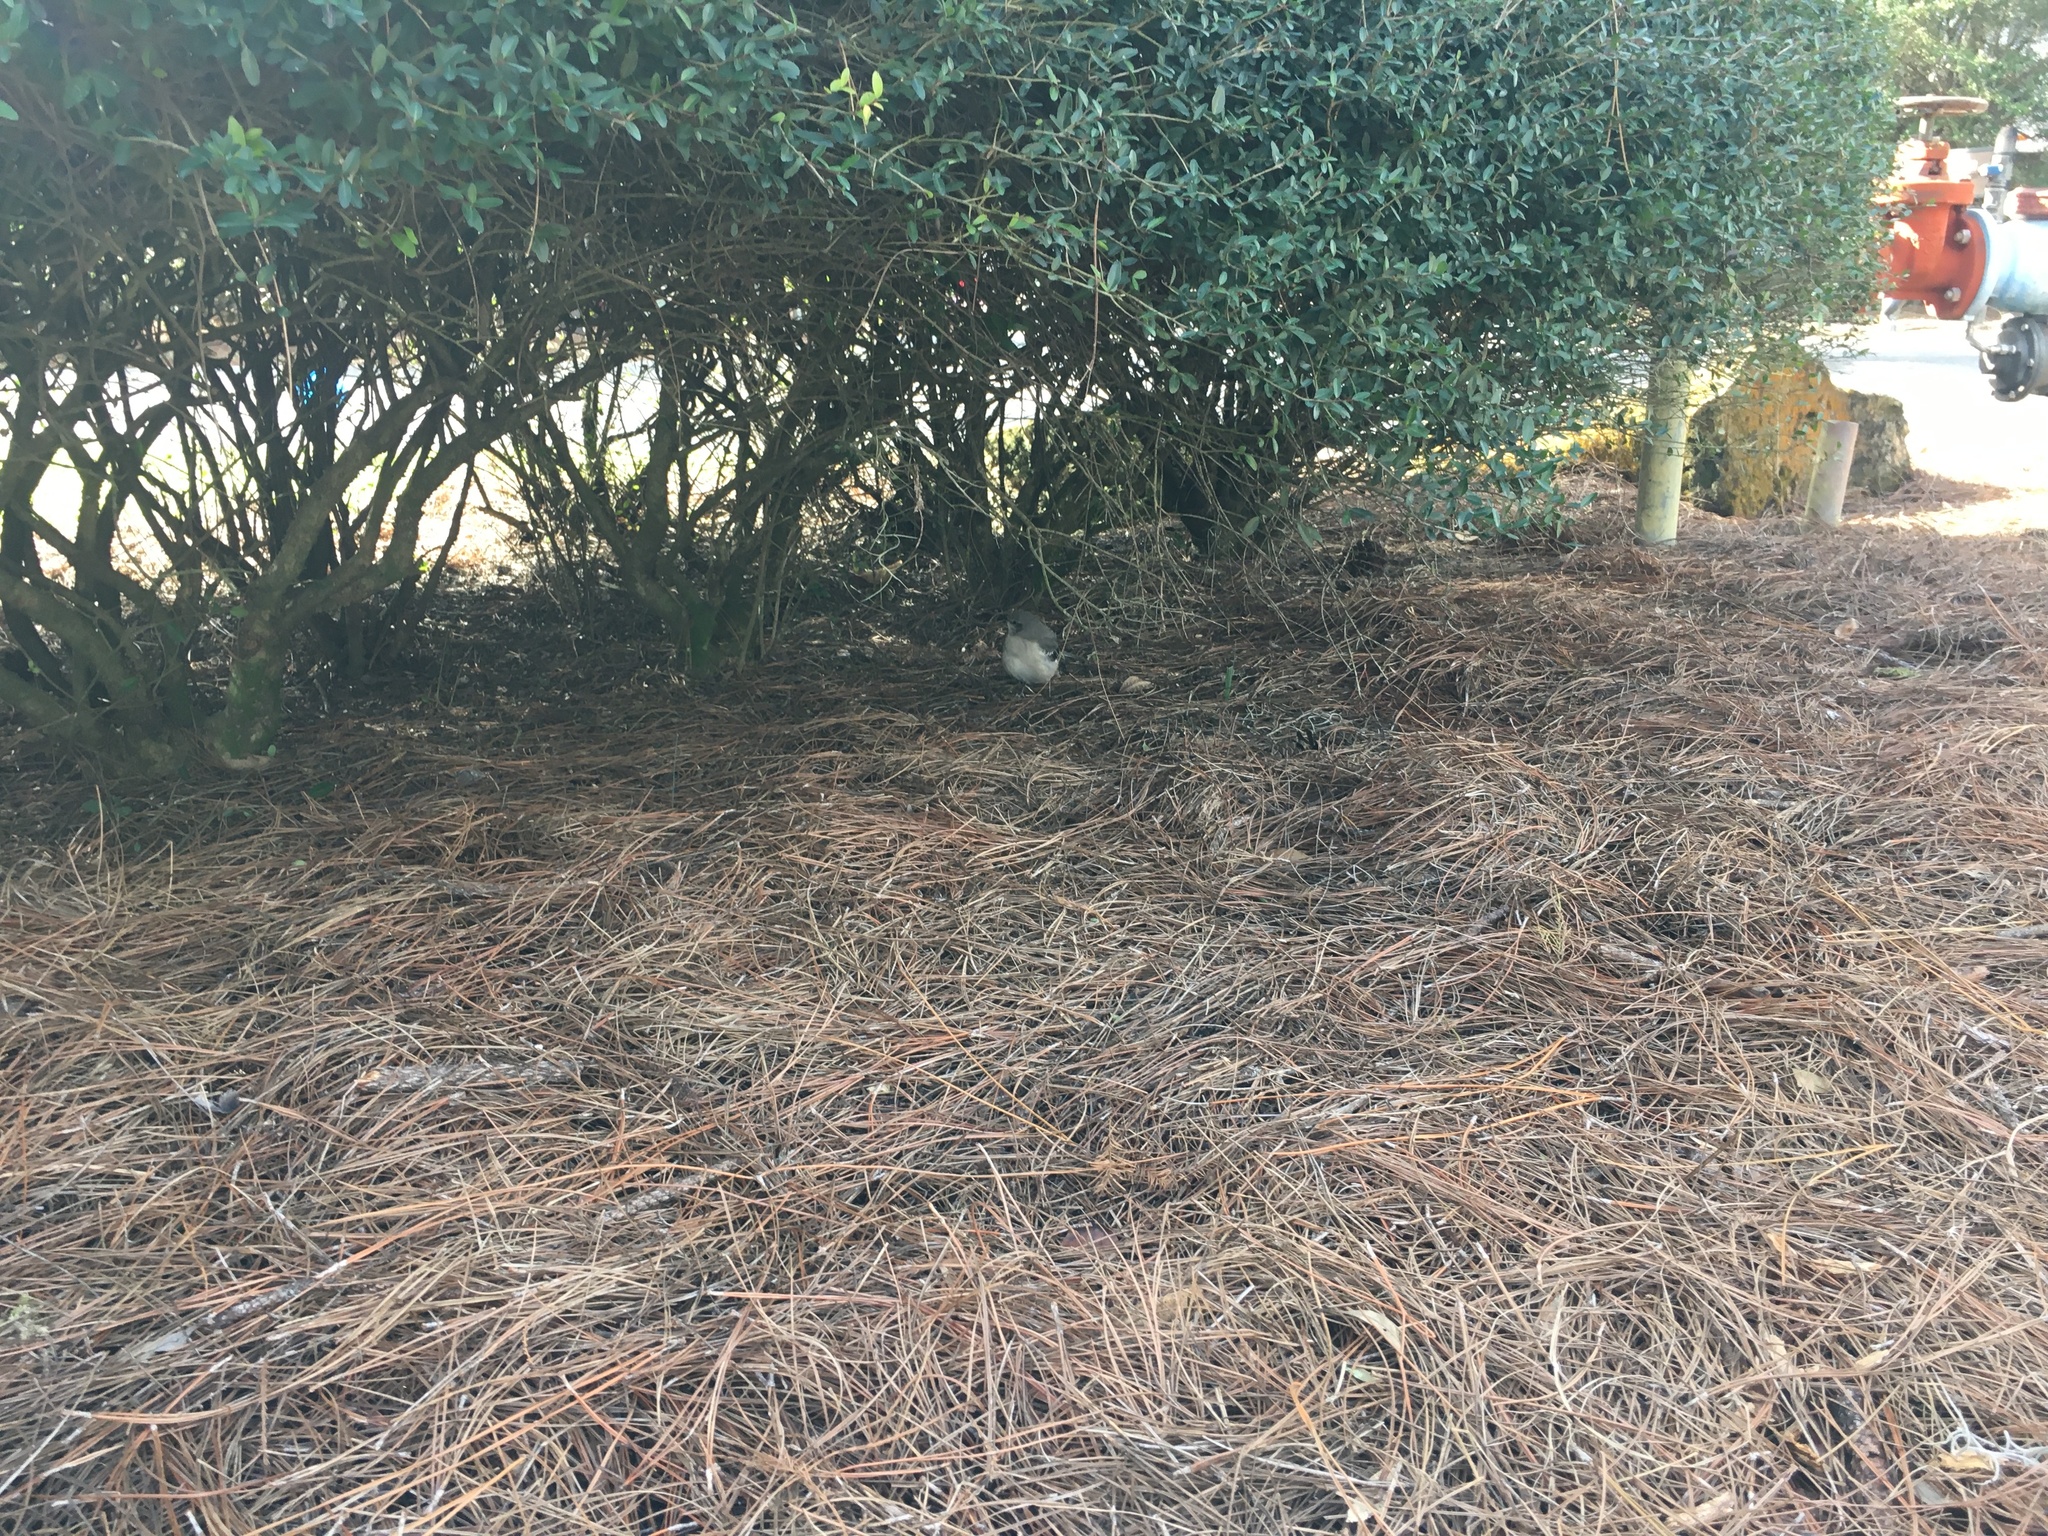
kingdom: Animalia
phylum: Chordata
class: Aves
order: Passeriformes
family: Mimidae
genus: Mimus
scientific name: Mimus polyglottos
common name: Northern mockingbird
